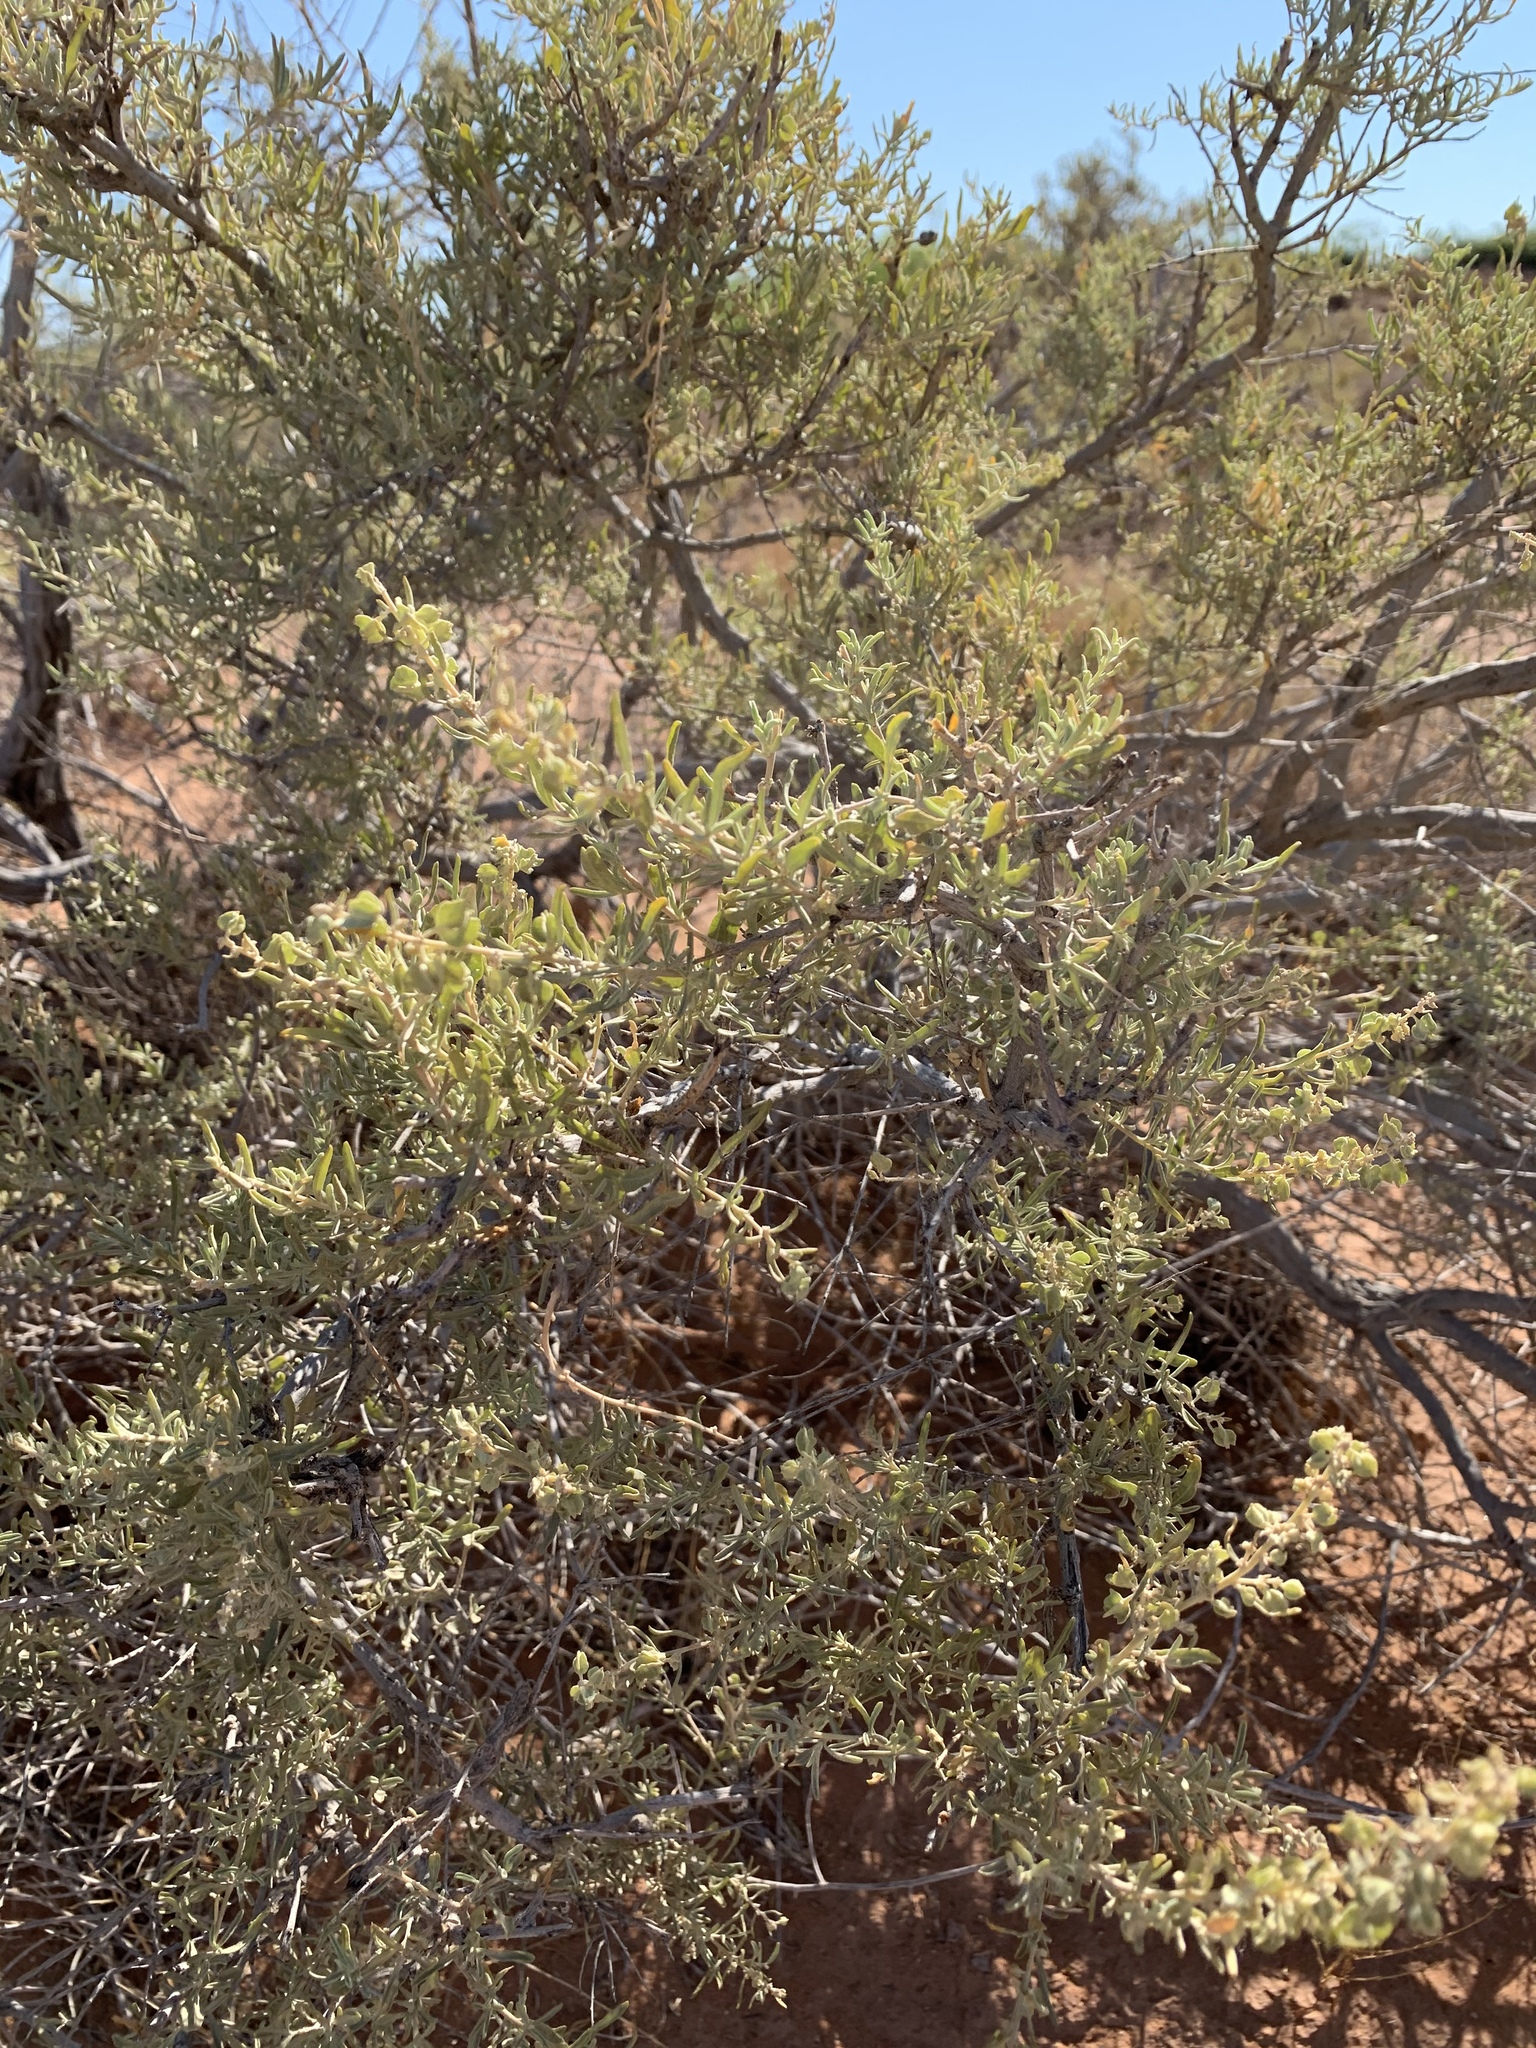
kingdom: Plantae
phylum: Tracheophyta
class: Magnoliopsida
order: Caryophyllales
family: Amaranthaceae
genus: Atriplex
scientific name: Atriplex canescens
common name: Four-wing saltbush
